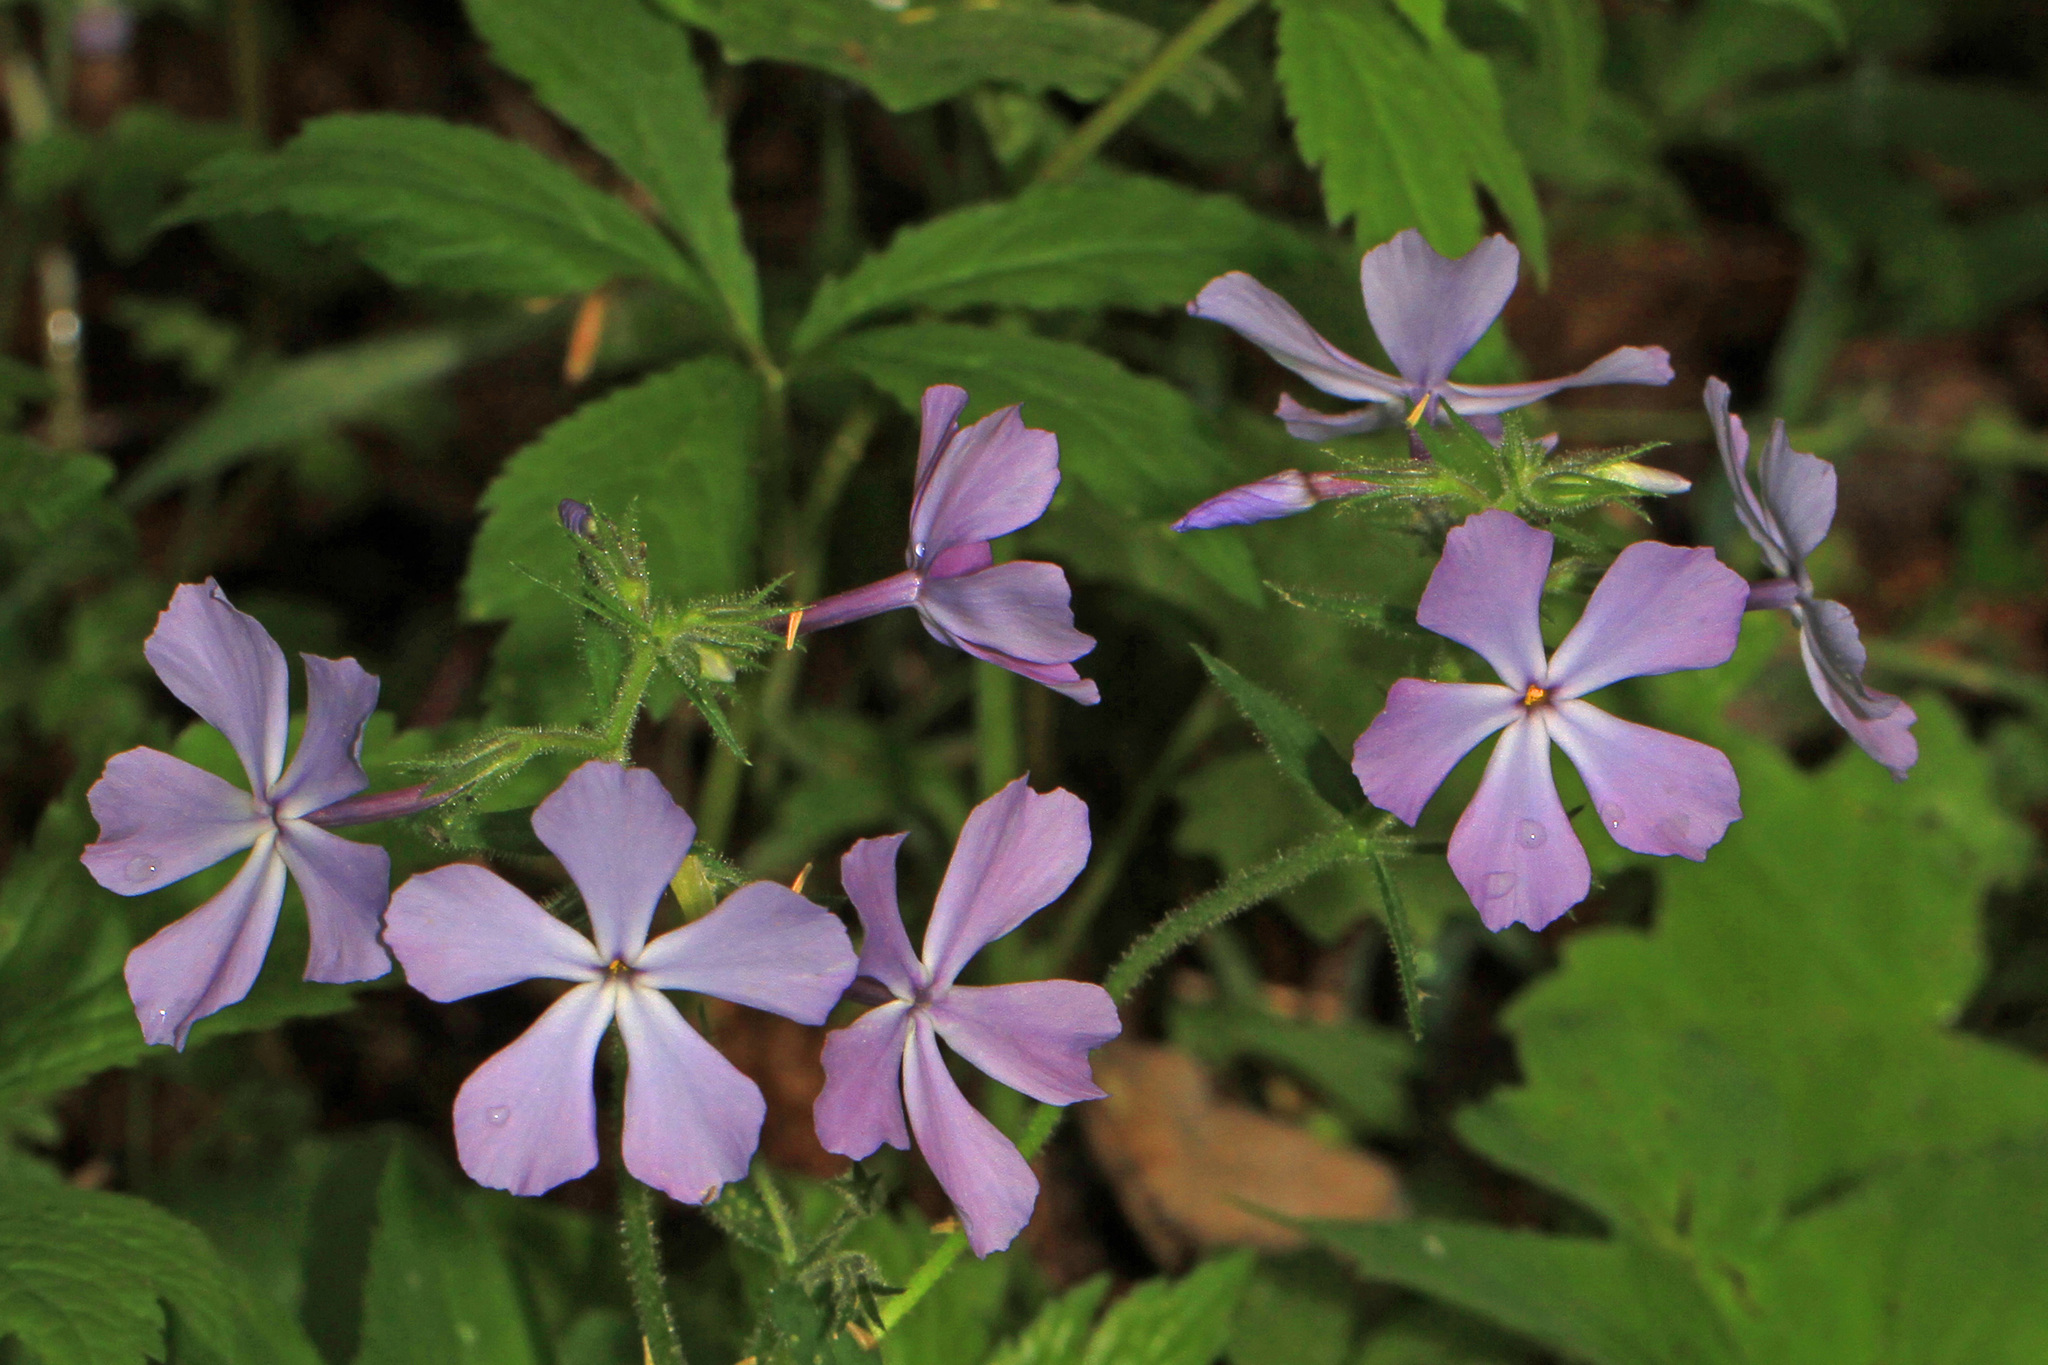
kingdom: Plantae
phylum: Tracheophyta
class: Magnoliopsida
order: Ericales
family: Polemoniaceae
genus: Phlox
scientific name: Phlox divaricata
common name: Blue phlox
